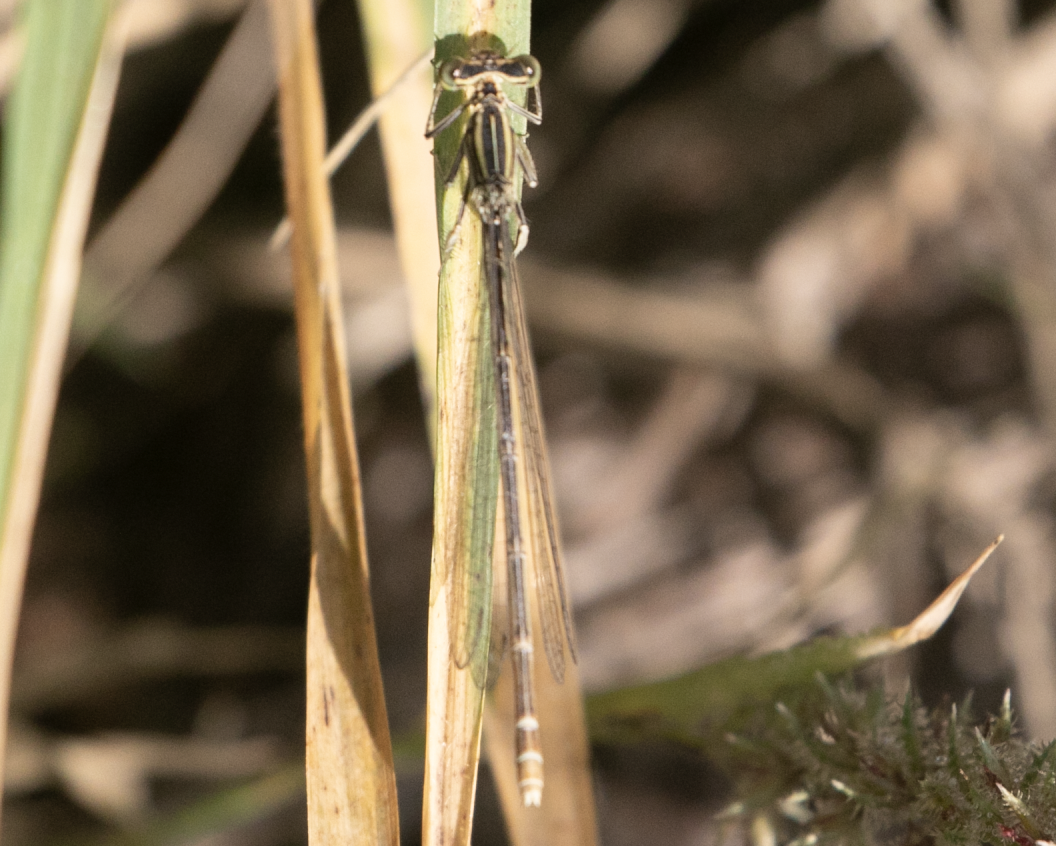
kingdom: Animalia
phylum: Arthropoda
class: Insecta
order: Odonata
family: Platycnemididae
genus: Platycnemis
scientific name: Platycnemis pennipes
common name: White-legged damselfly
